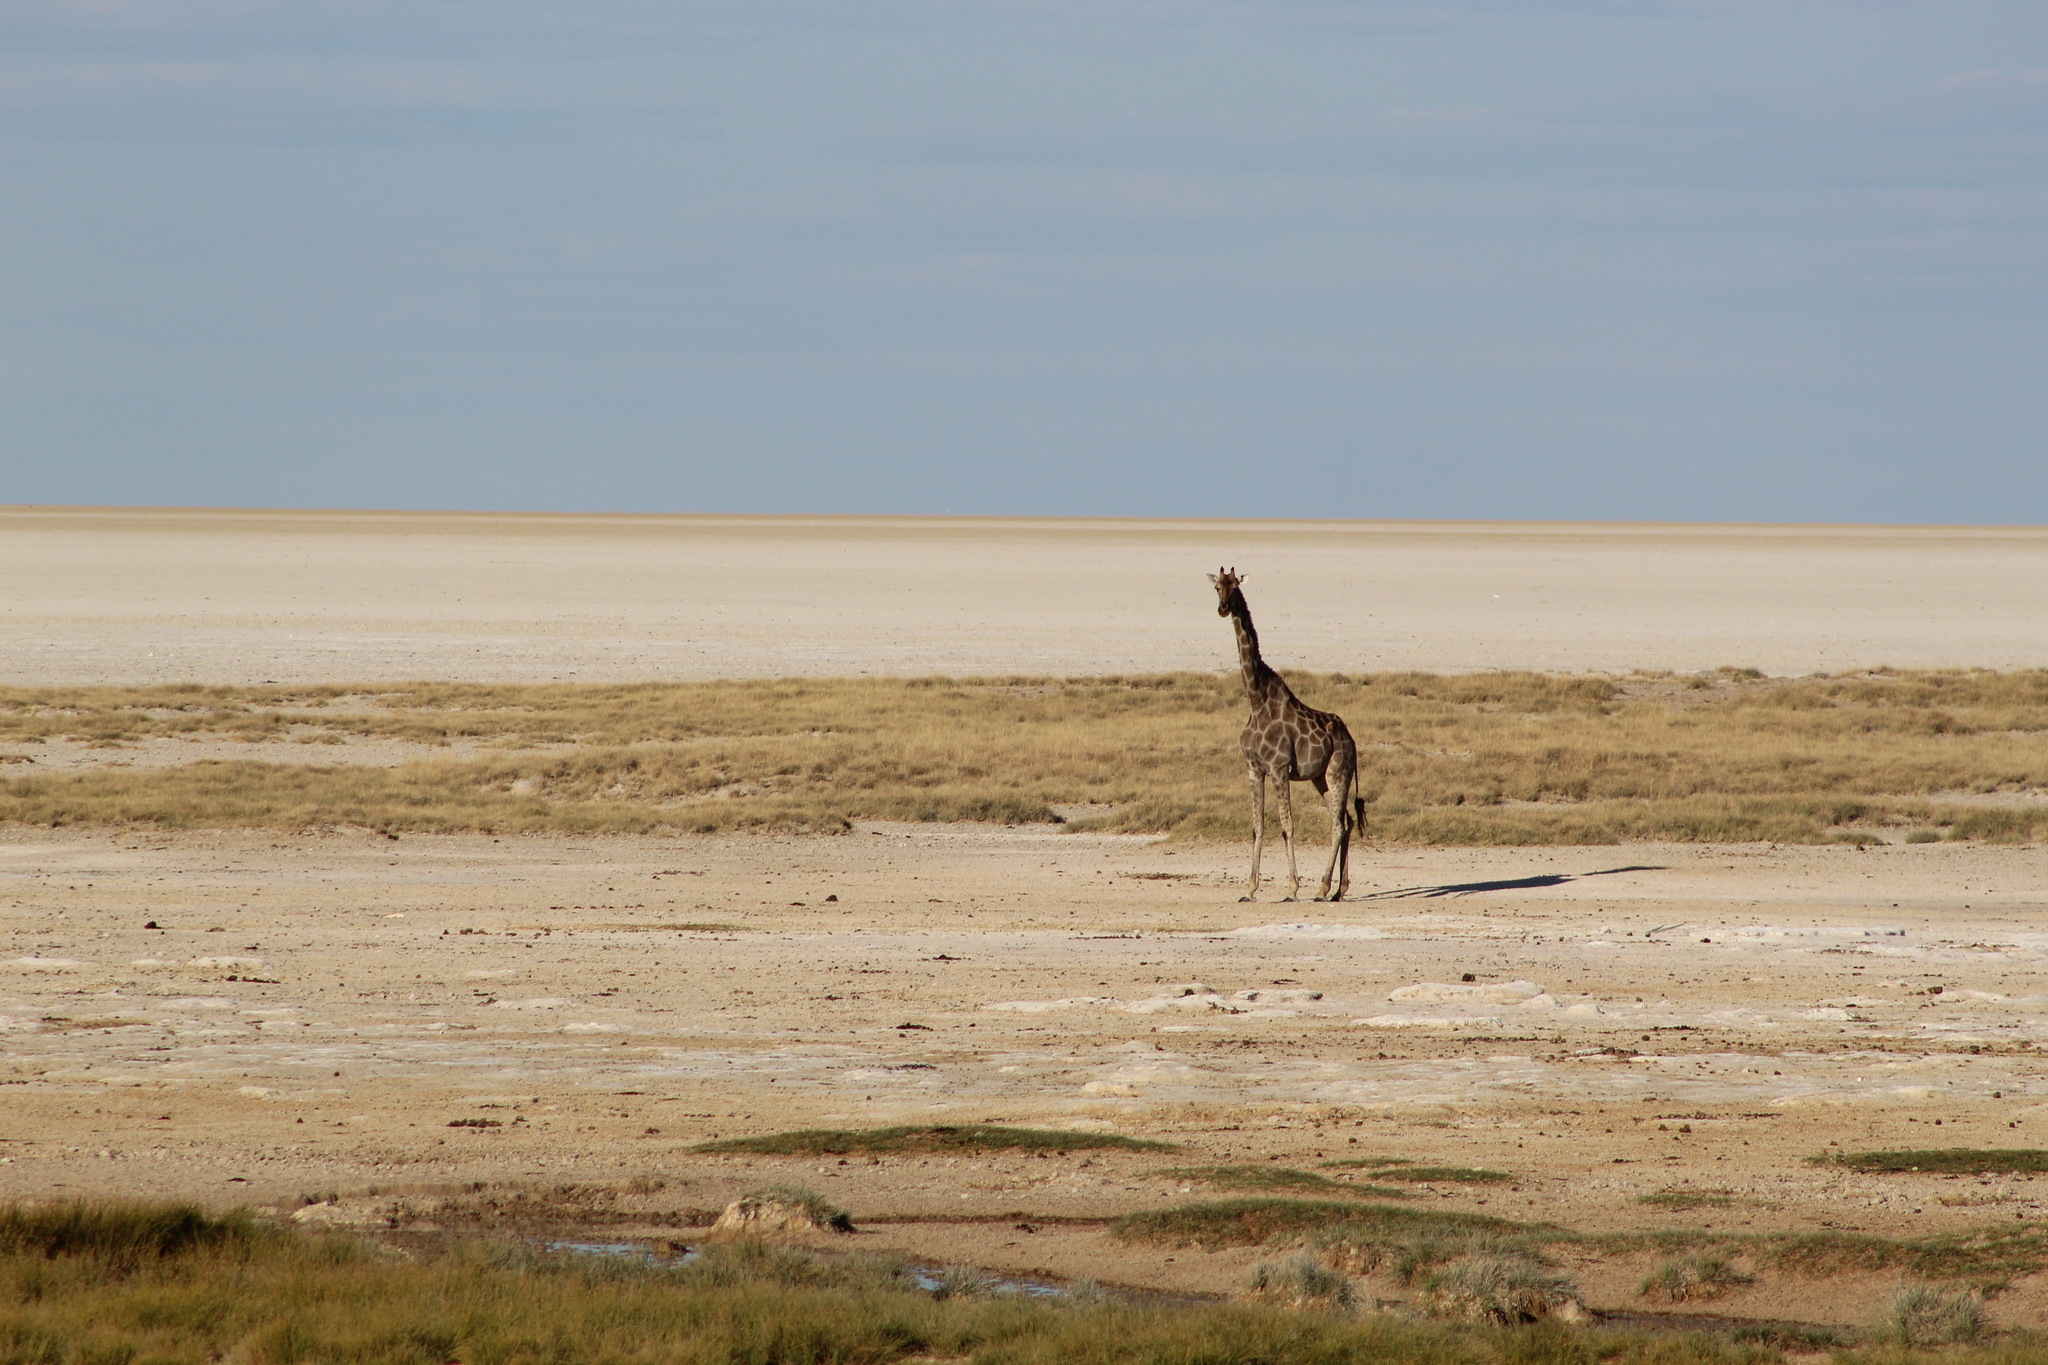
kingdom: Animalia
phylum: Chordata
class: Mammalia
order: Artiodactyla
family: Giraffidae
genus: Giraffa
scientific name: Giraffa giraffa
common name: Southern giraffe
